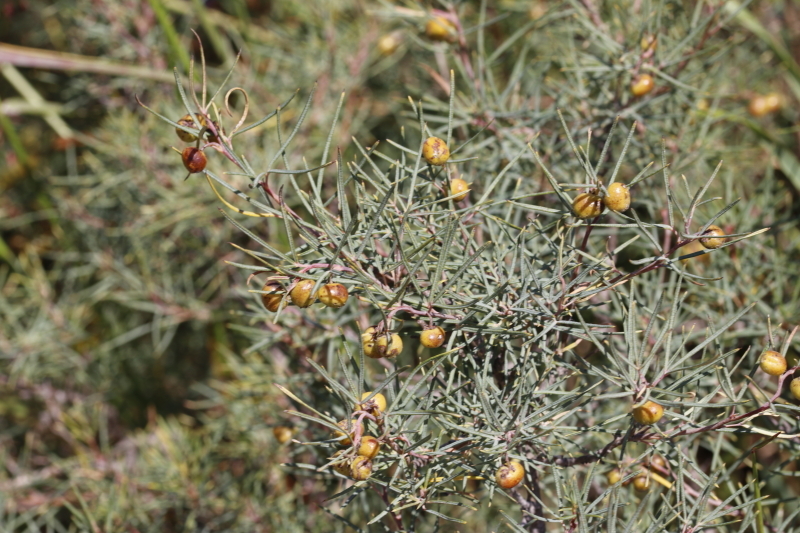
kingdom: Plantae
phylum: Tracheophyta
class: Magnoliopsida
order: Sapindales
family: Anacardiaceae
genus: Searsia
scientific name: Searsia rosmarinifolia
